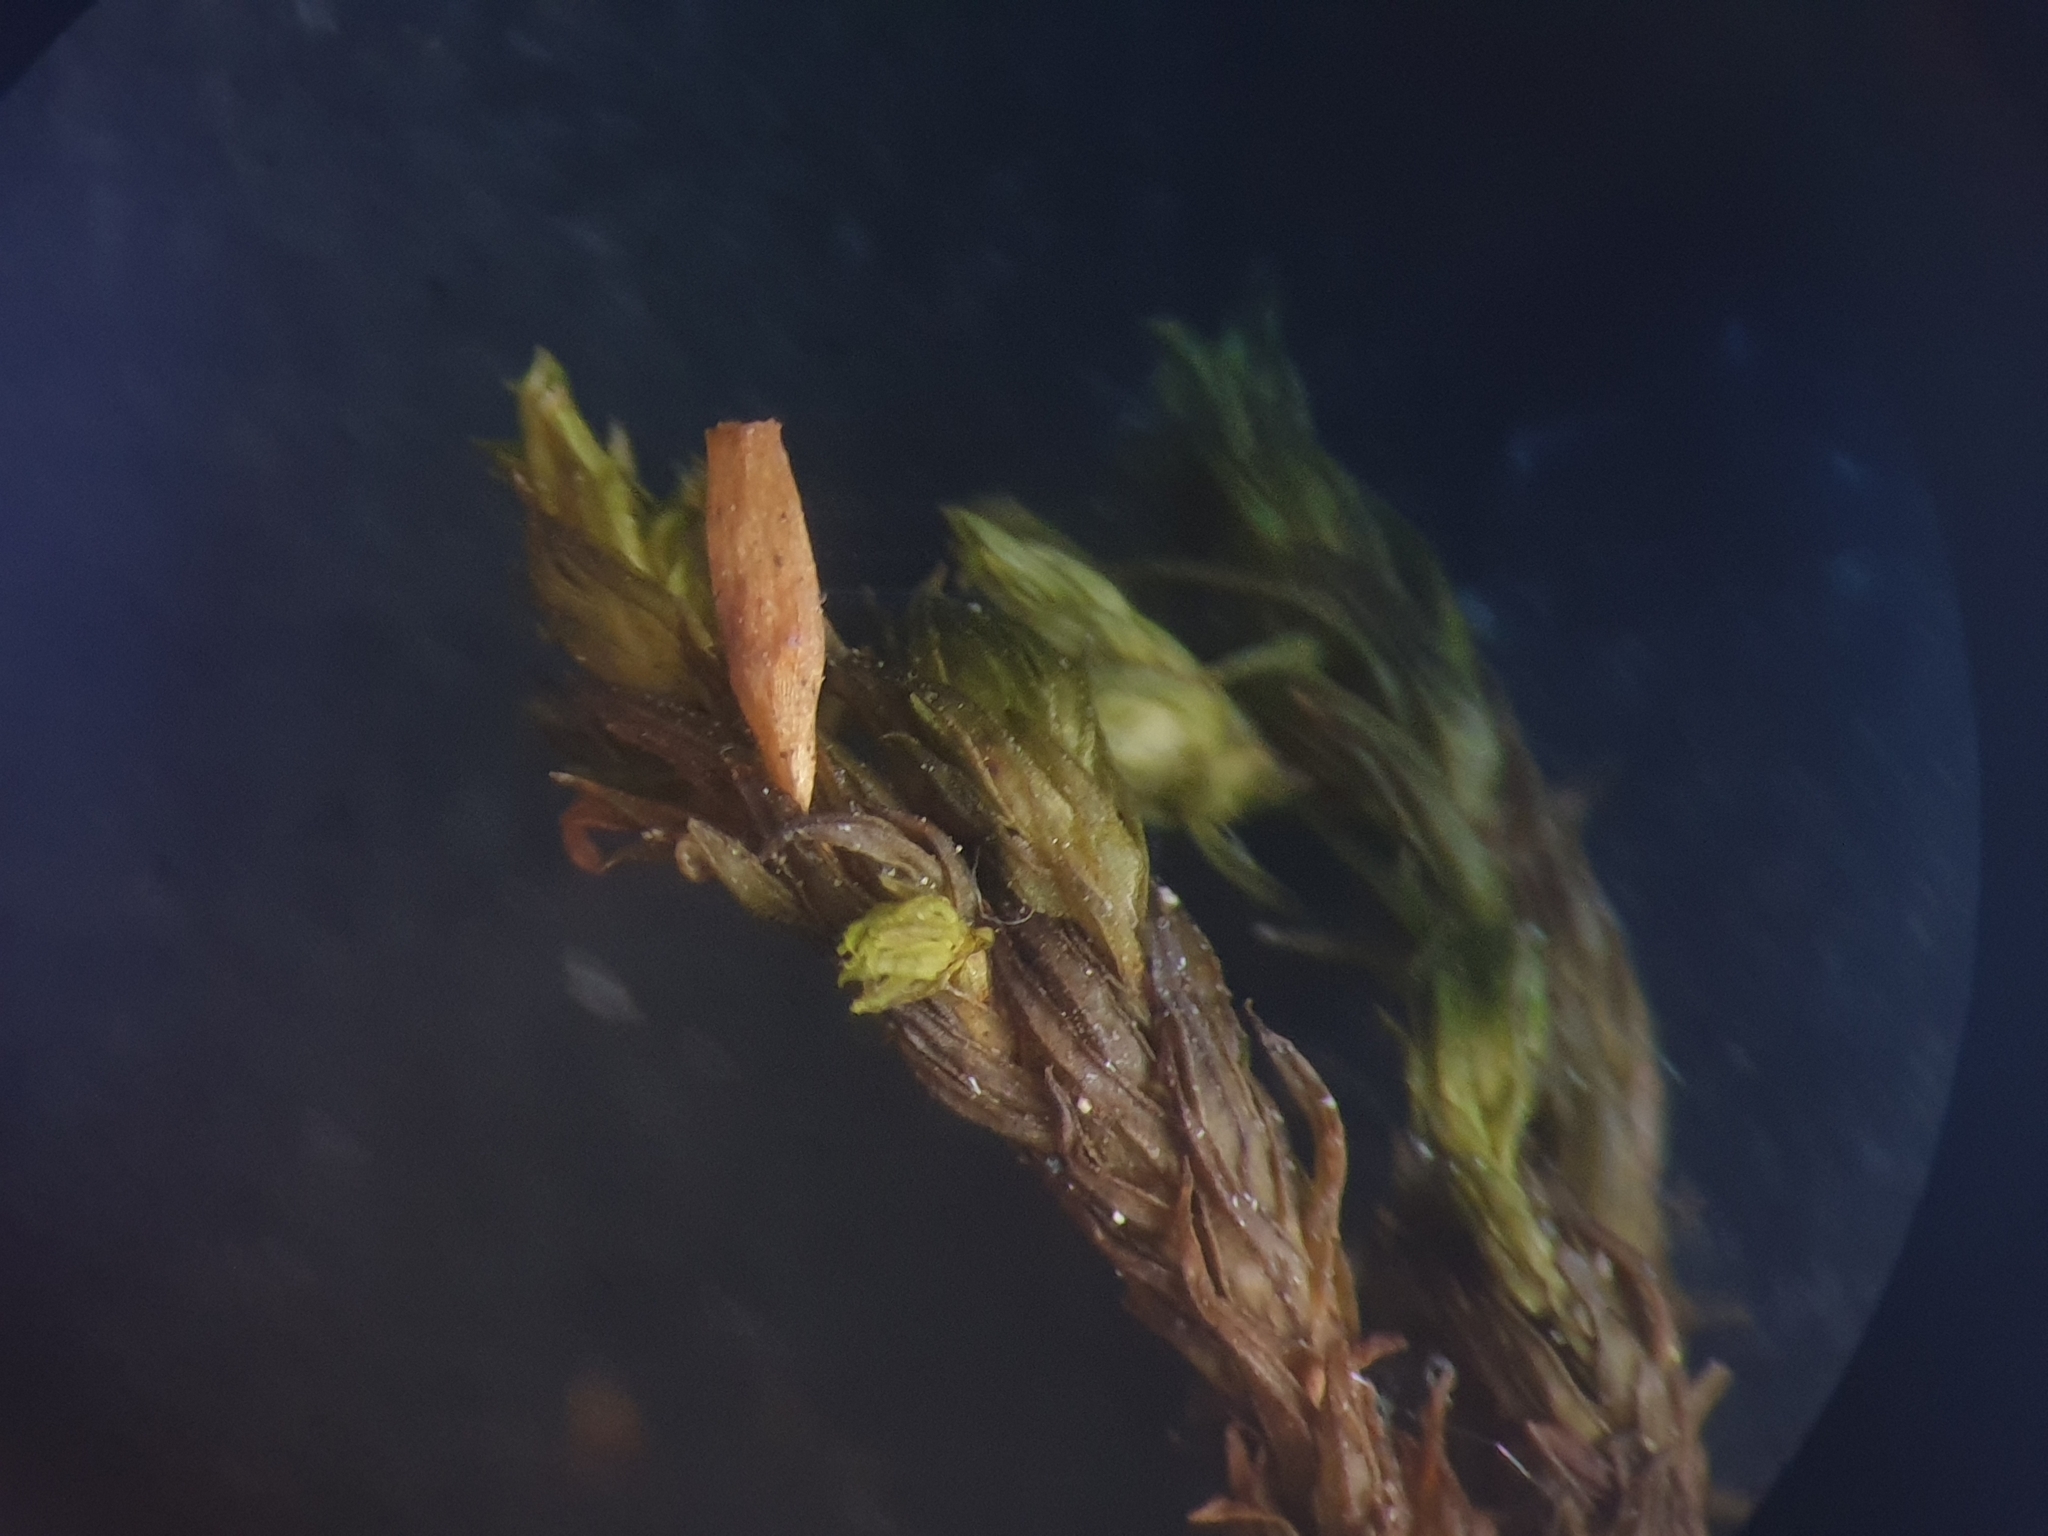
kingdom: Plantae
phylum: Bryophyta
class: Bryopsida
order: Orthotrichales
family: Orthotrichaceae
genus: Lewinskya
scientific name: Lewinskya elegans
